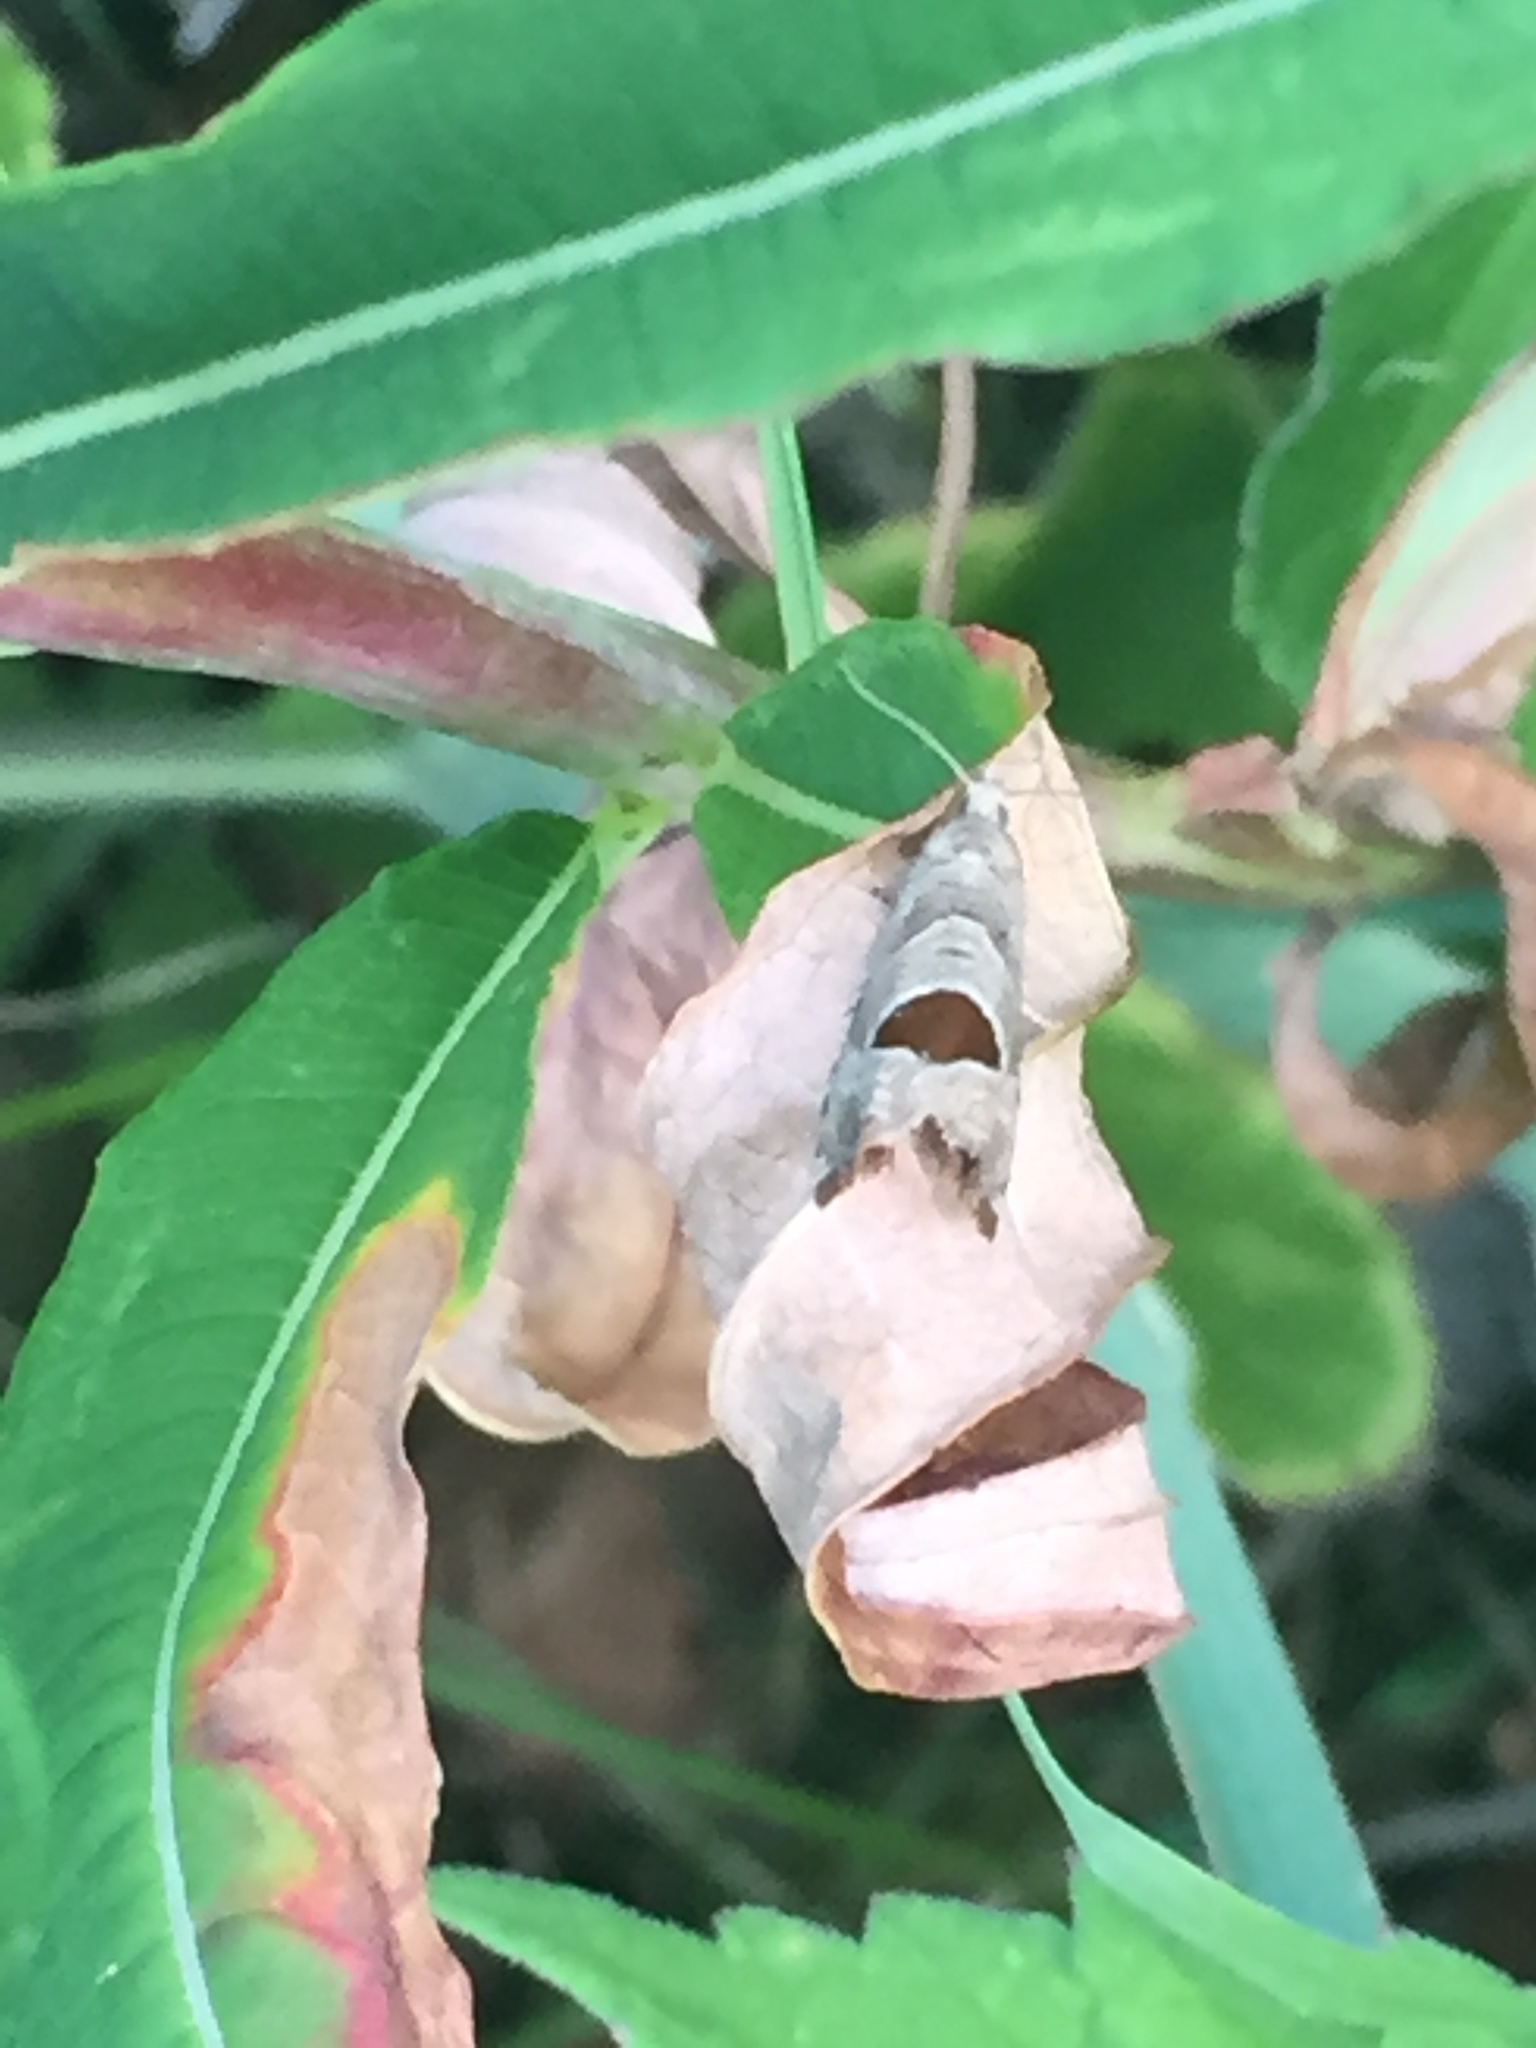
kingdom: Animalia
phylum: Arthropoda
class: Insecta
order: Lepidoptera
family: Tortricidae
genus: Notocelia
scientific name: Notocelia uddmanniana
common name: Bramble shoot moth
